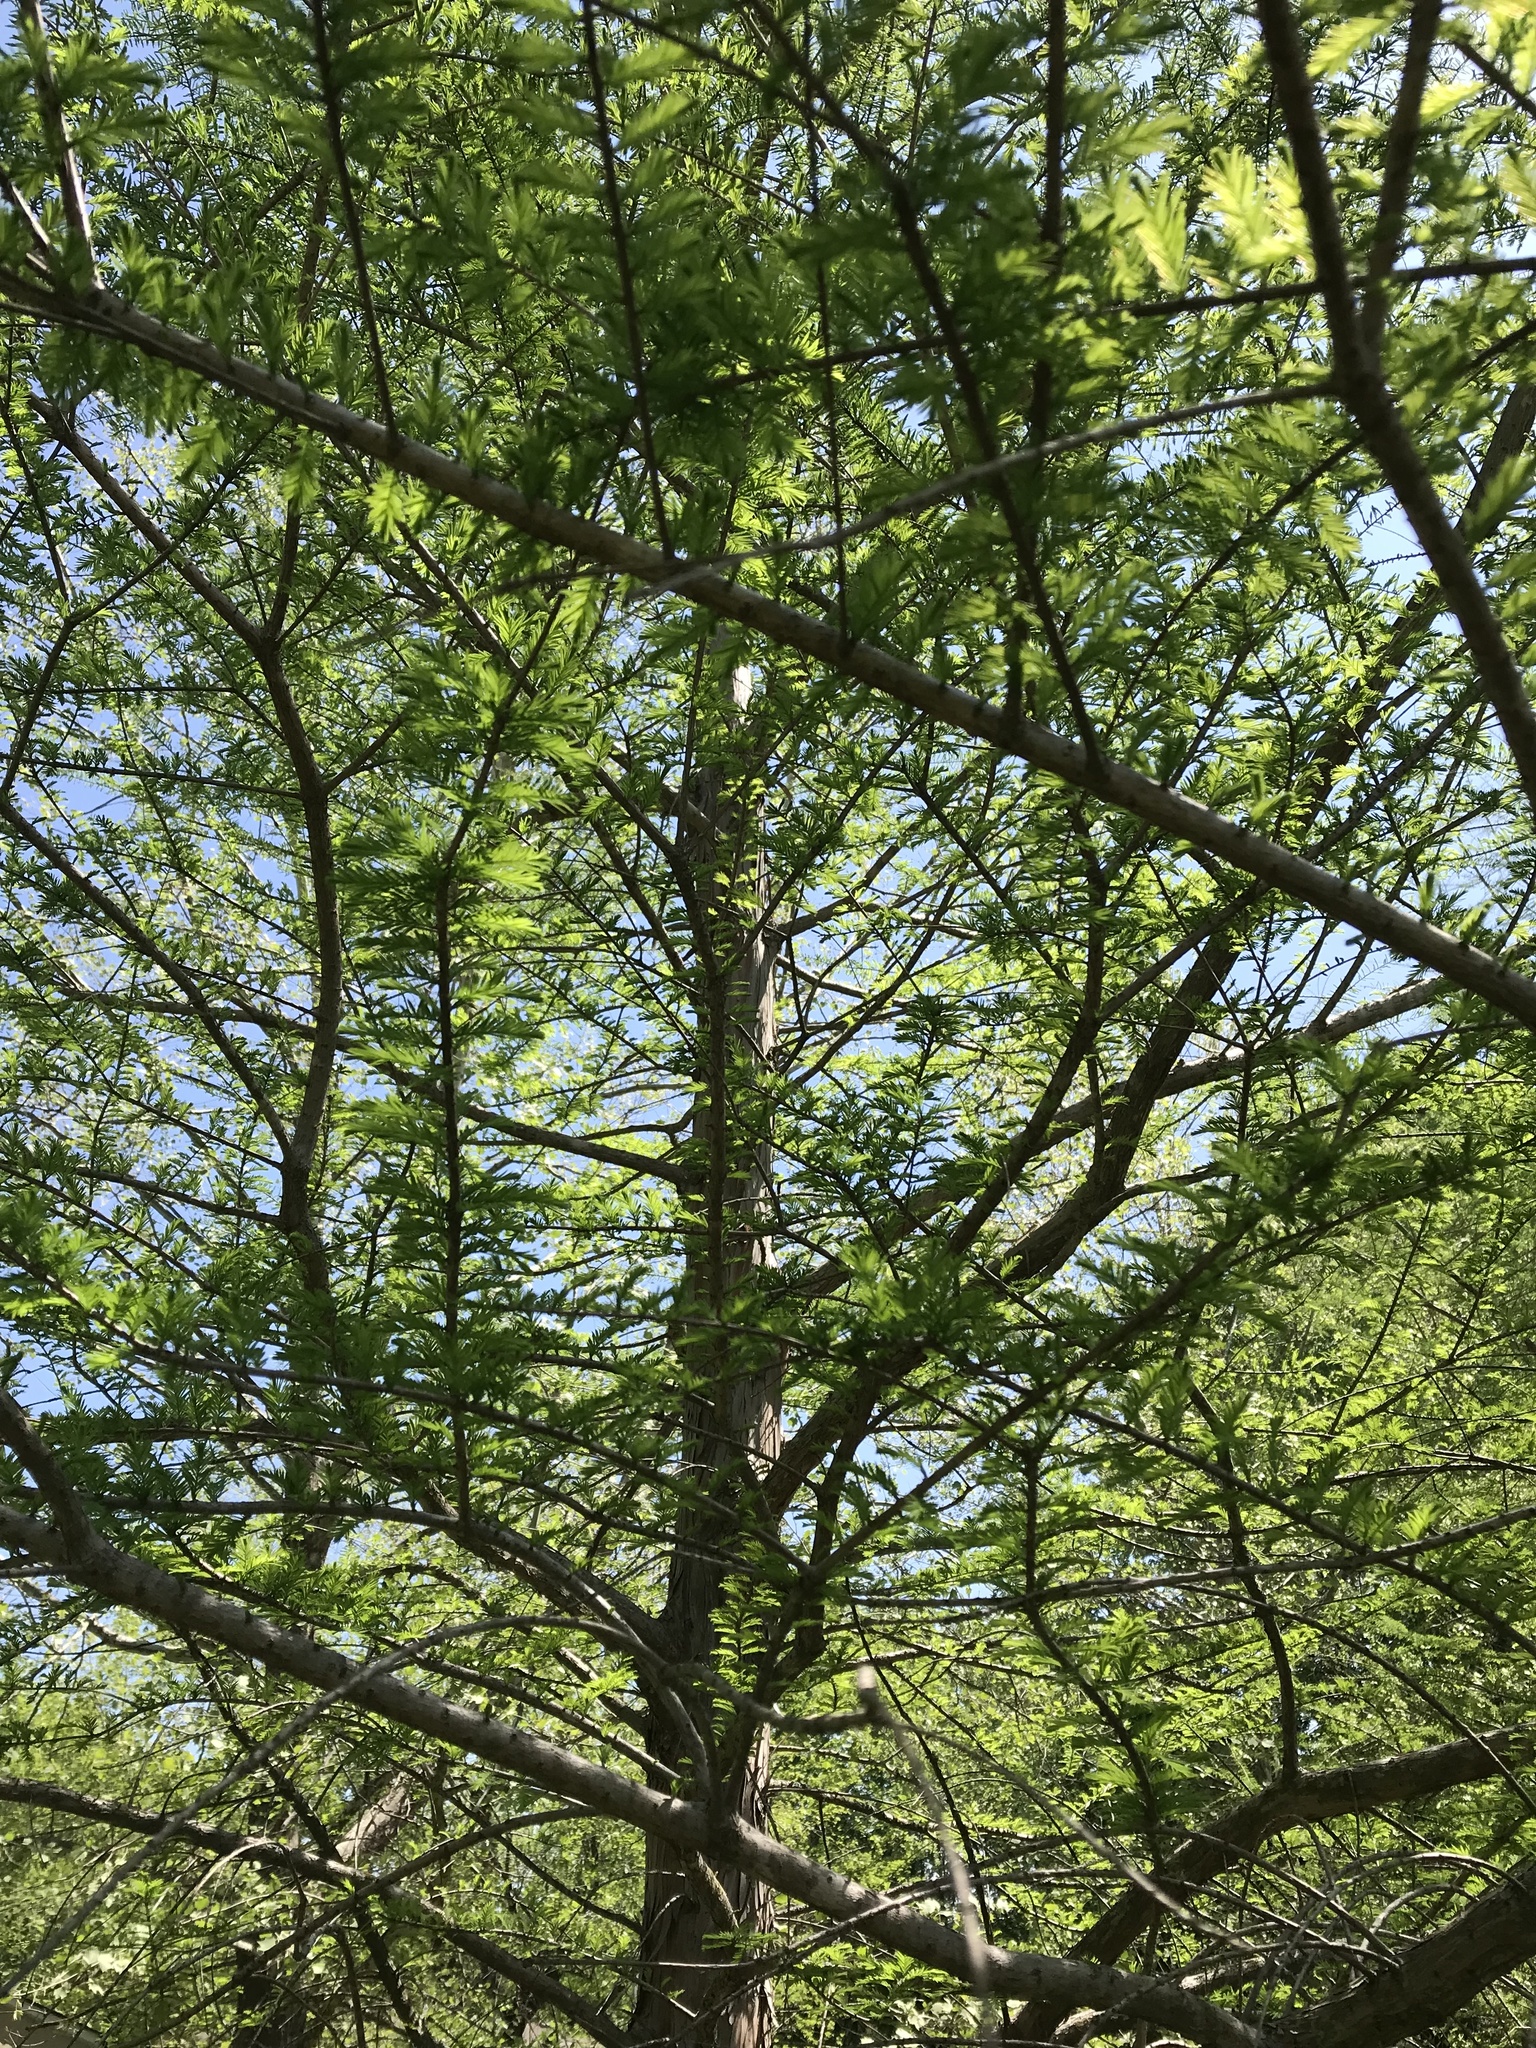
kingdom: Plantae
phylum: Tracheophyta
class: Pinopsida
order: Pinales
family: Cupressaceae
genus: Taxodium
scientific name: Taxodium distichum
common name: Bald cypress
